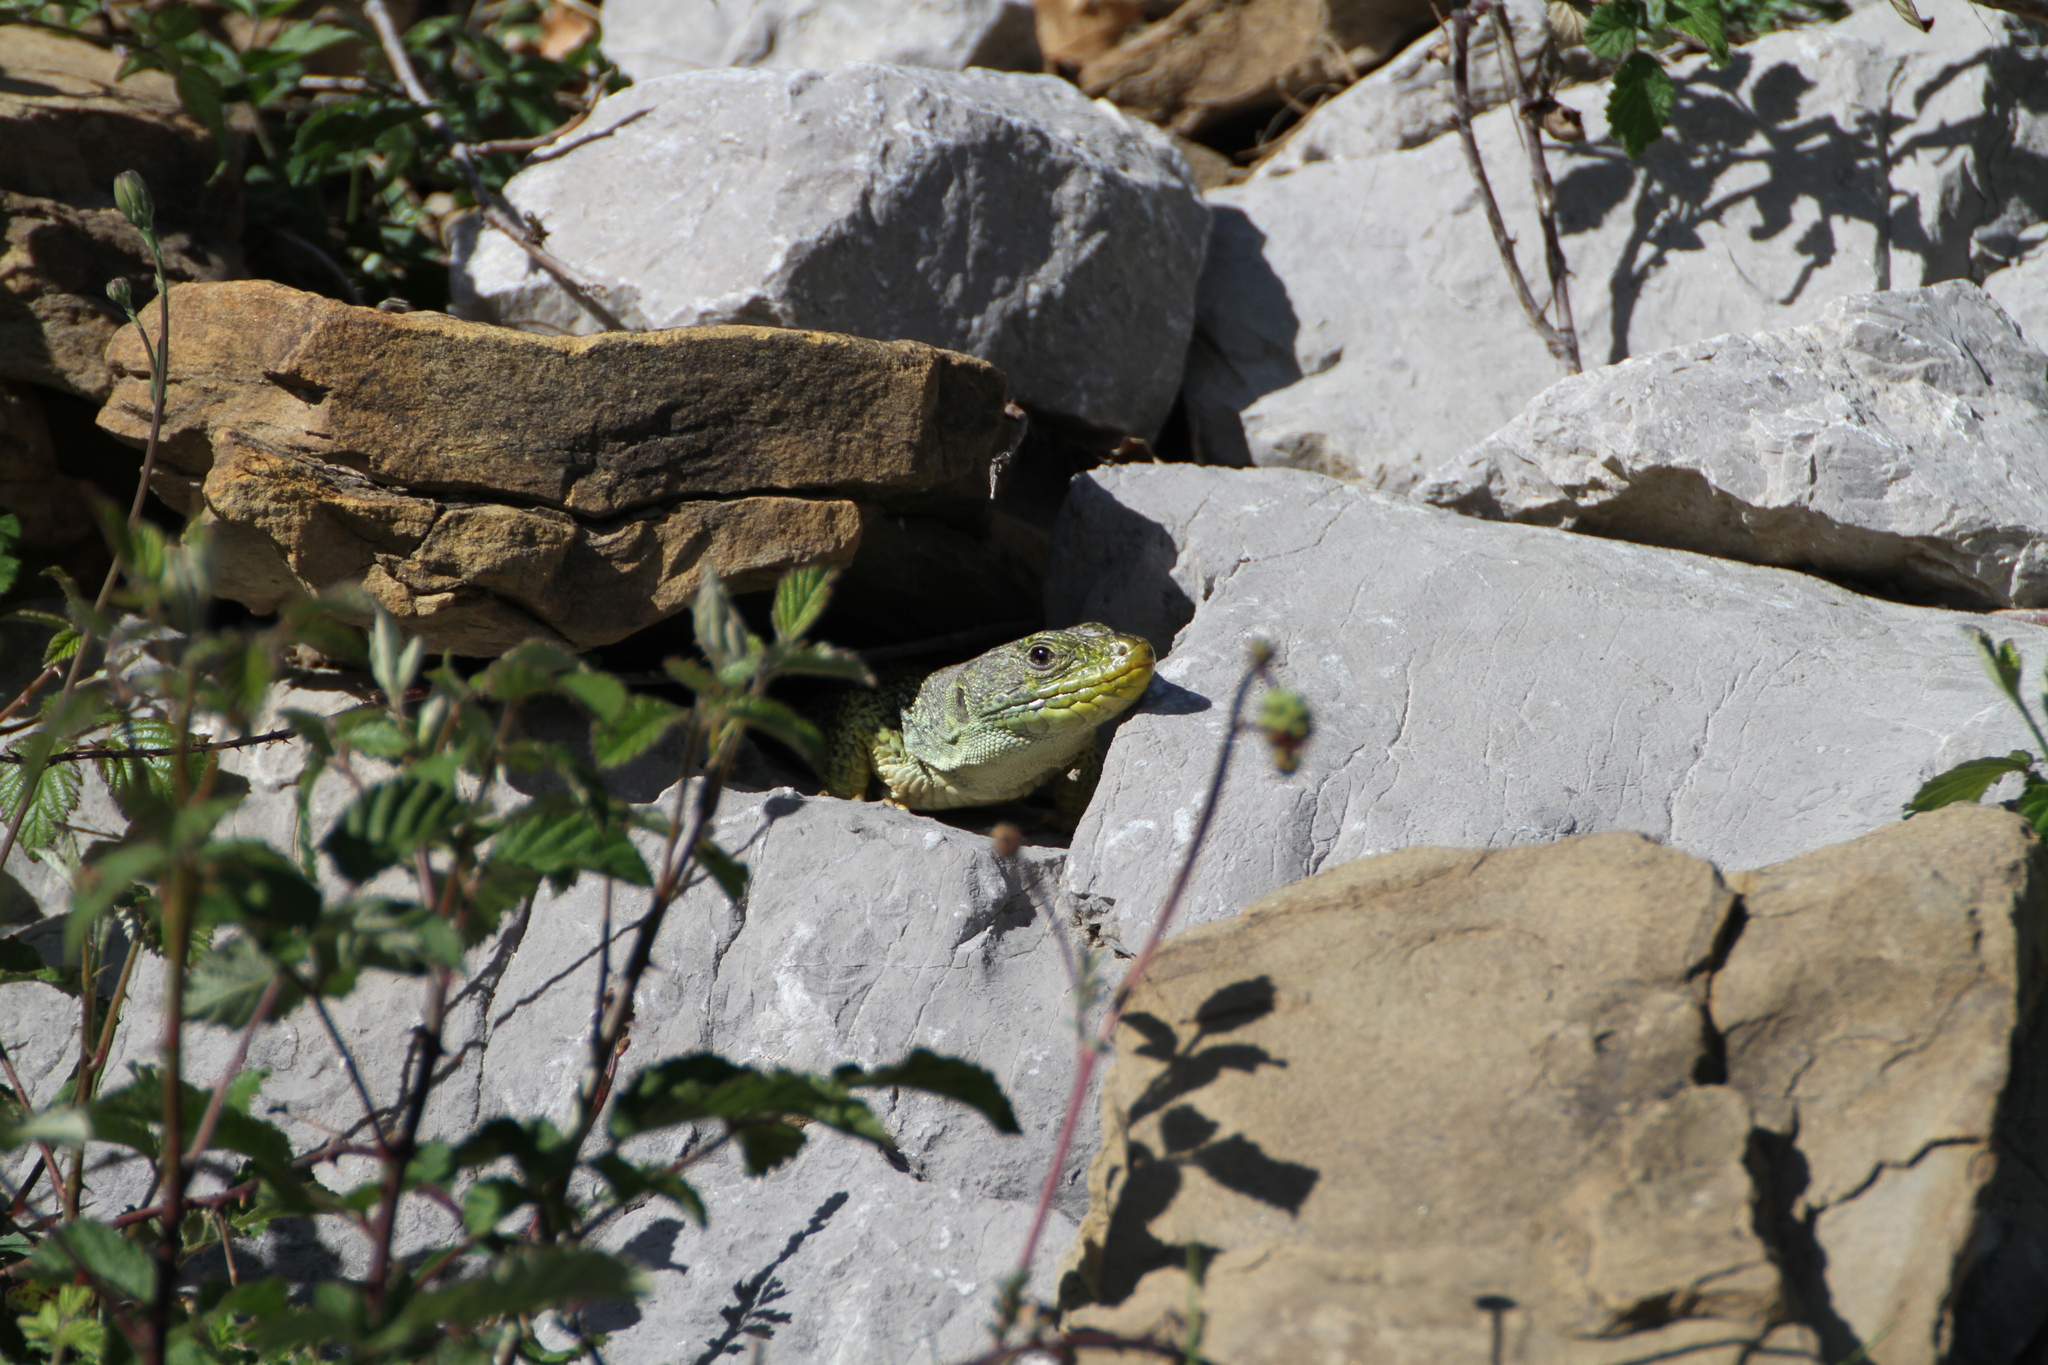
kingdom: Animalia
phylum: Chordata
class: Squamata
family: Lacertidae
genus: Timon
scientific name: Timon lepidus
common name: Ocellated lizard
